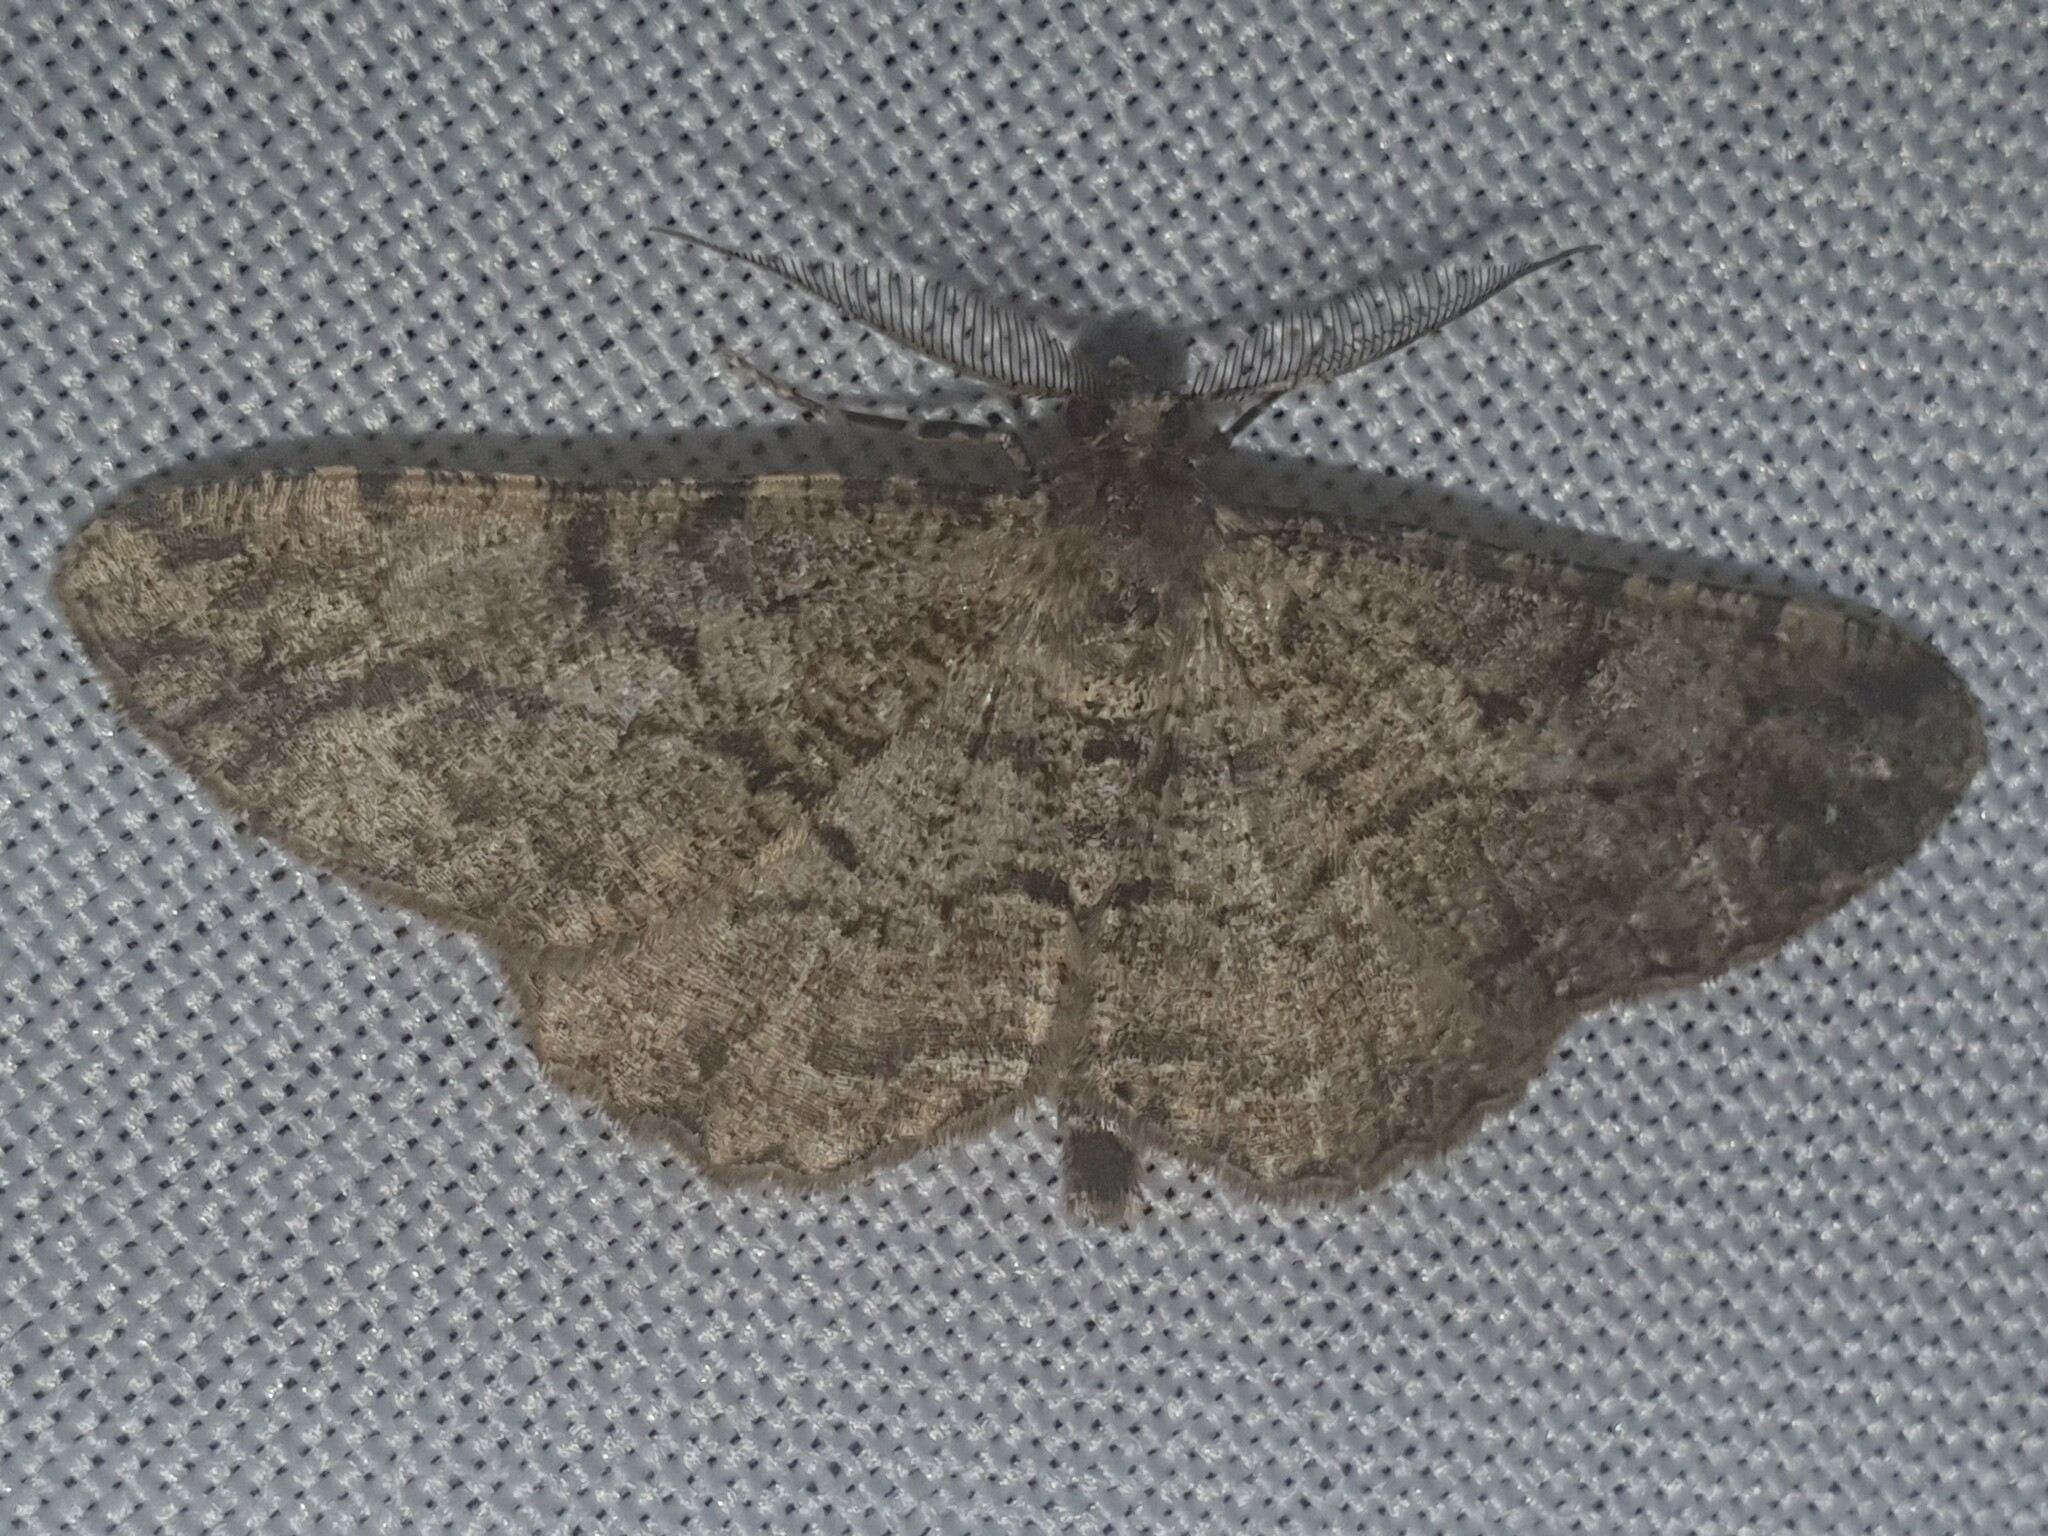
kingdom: Animalia
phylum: Arthropoda
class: Insecta
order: Lepidoptera
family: Geometridae
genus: Peribatodes
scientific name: Peribatodes rhomboidaria
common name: Willow beauty
